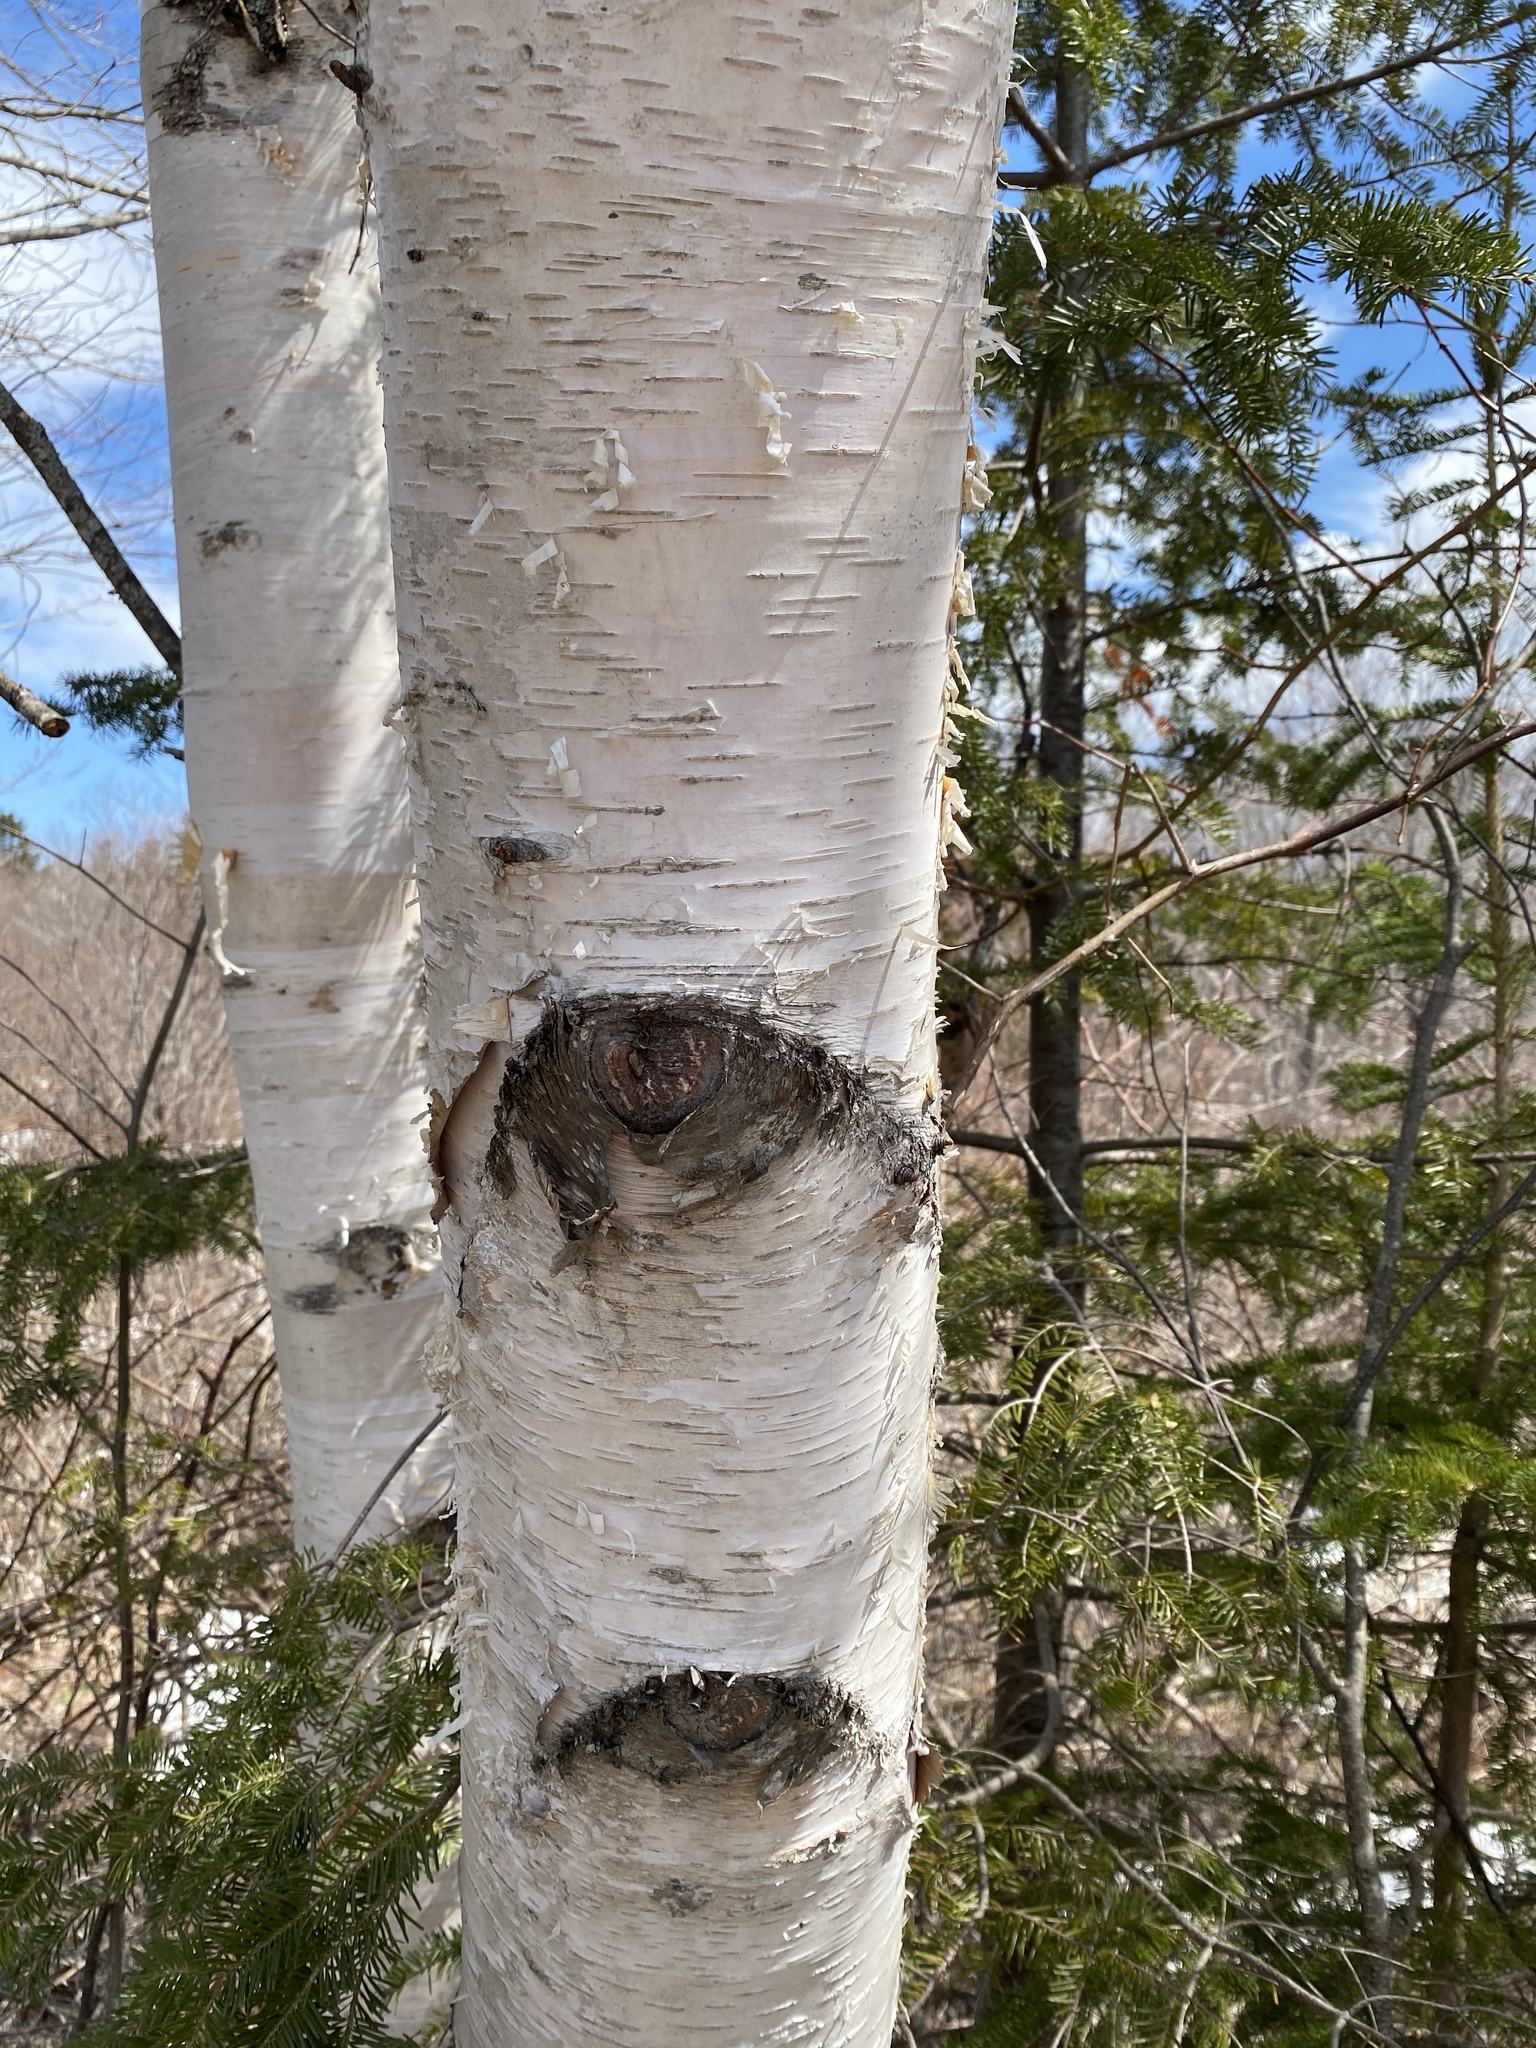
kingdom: Plantae
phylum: Tracheophyta
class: Magnoliopsida
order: Fagales
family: Betulaceae
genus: Betula
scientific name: Betula papyrifera
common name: Paper birch
